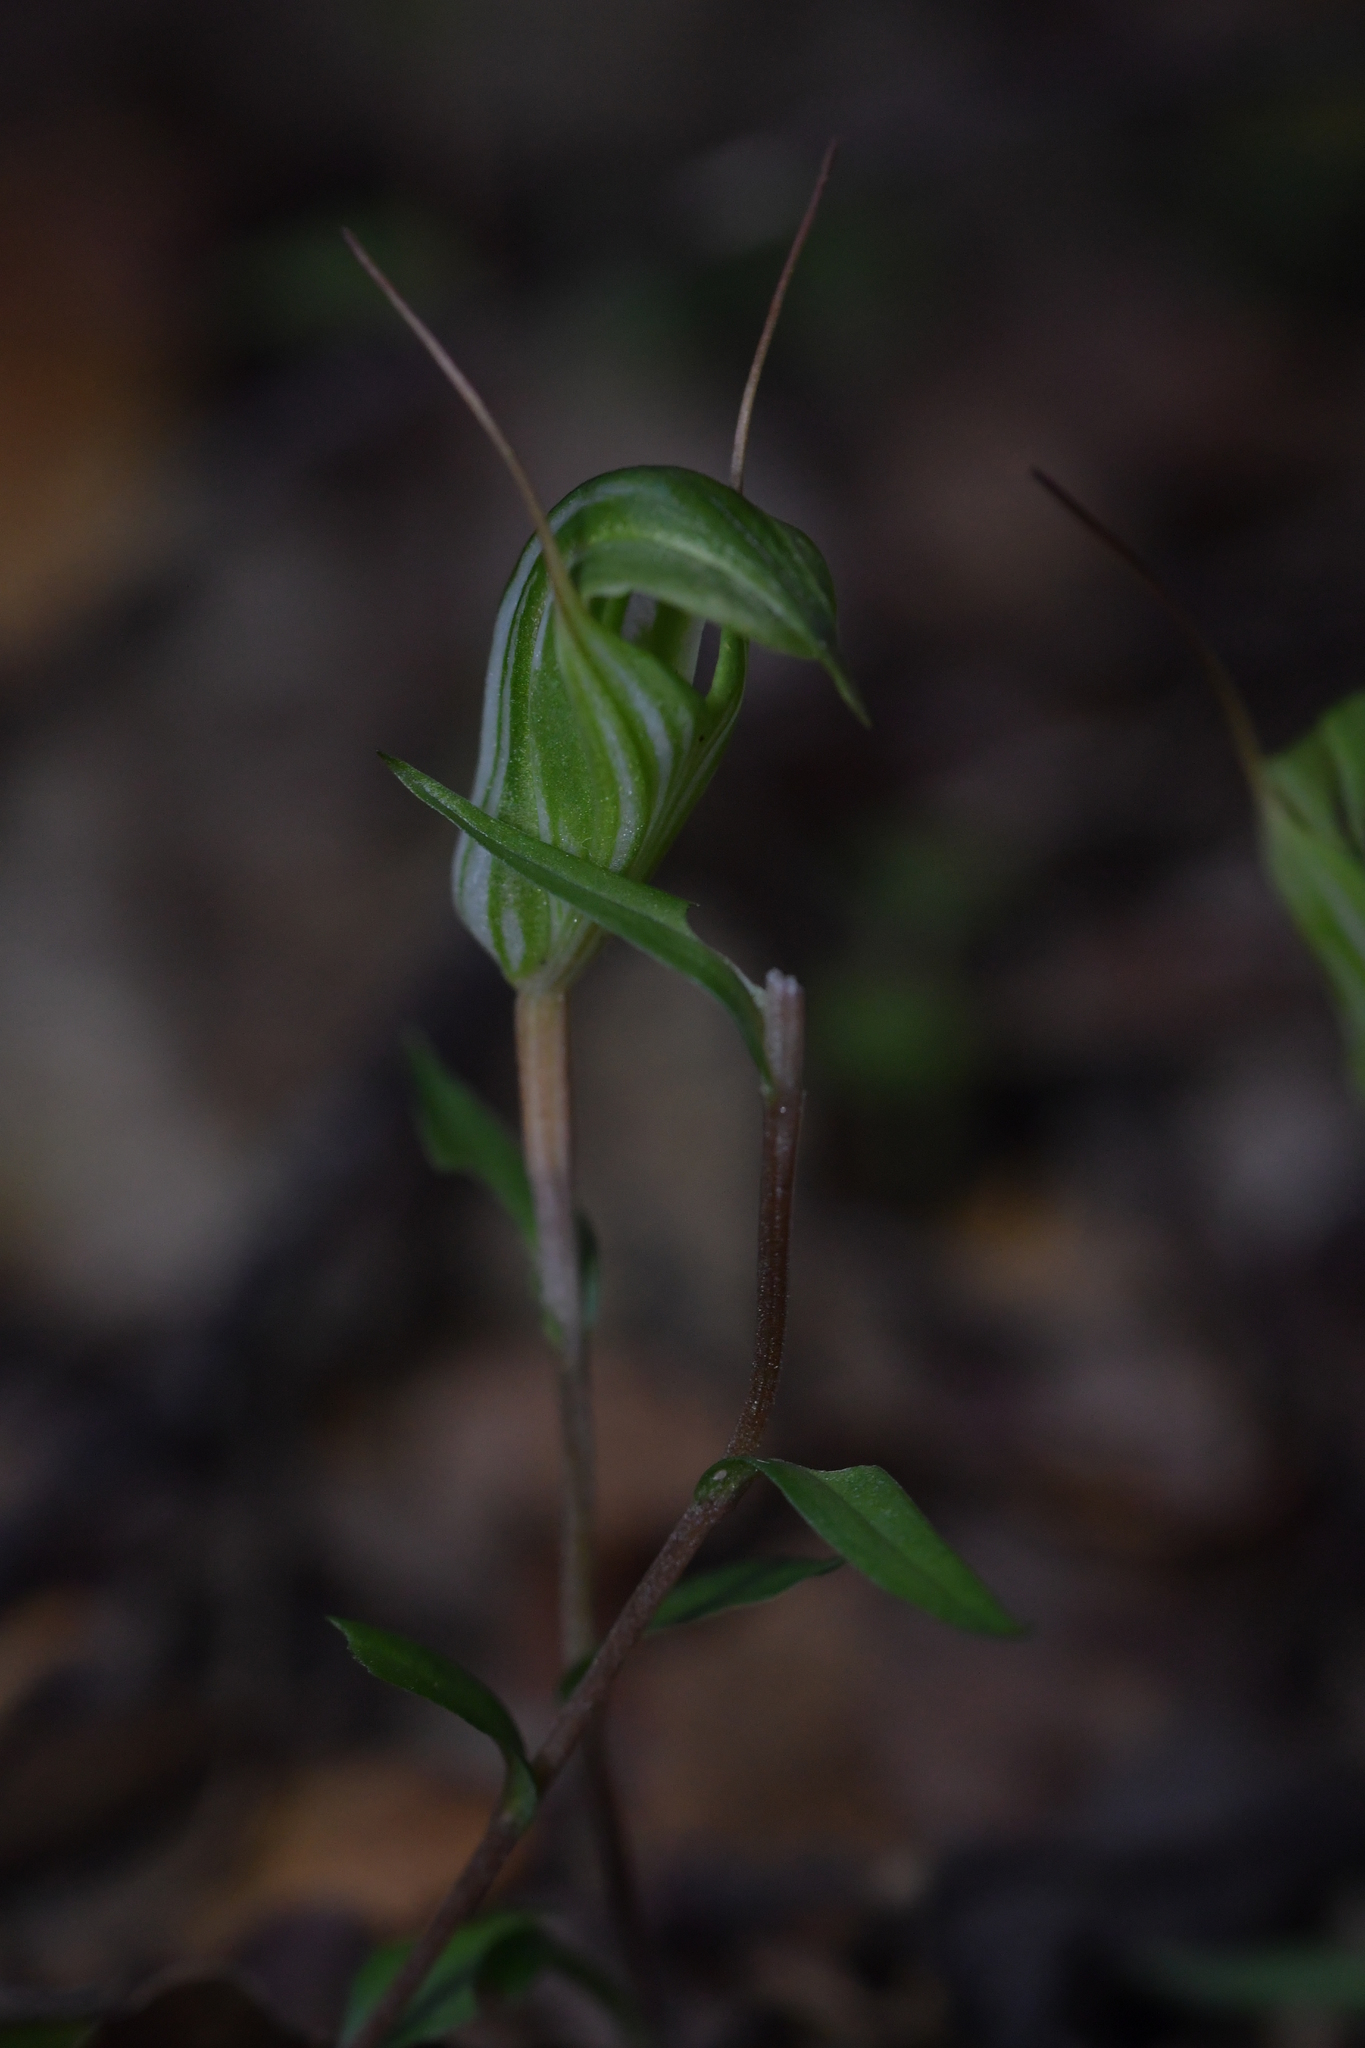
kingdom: Plantae
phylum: Tracheophyta
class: Liliopsida
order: Asparagales
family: Orchidaceae
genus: Pterostylis
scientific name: Pterostylis alobula
